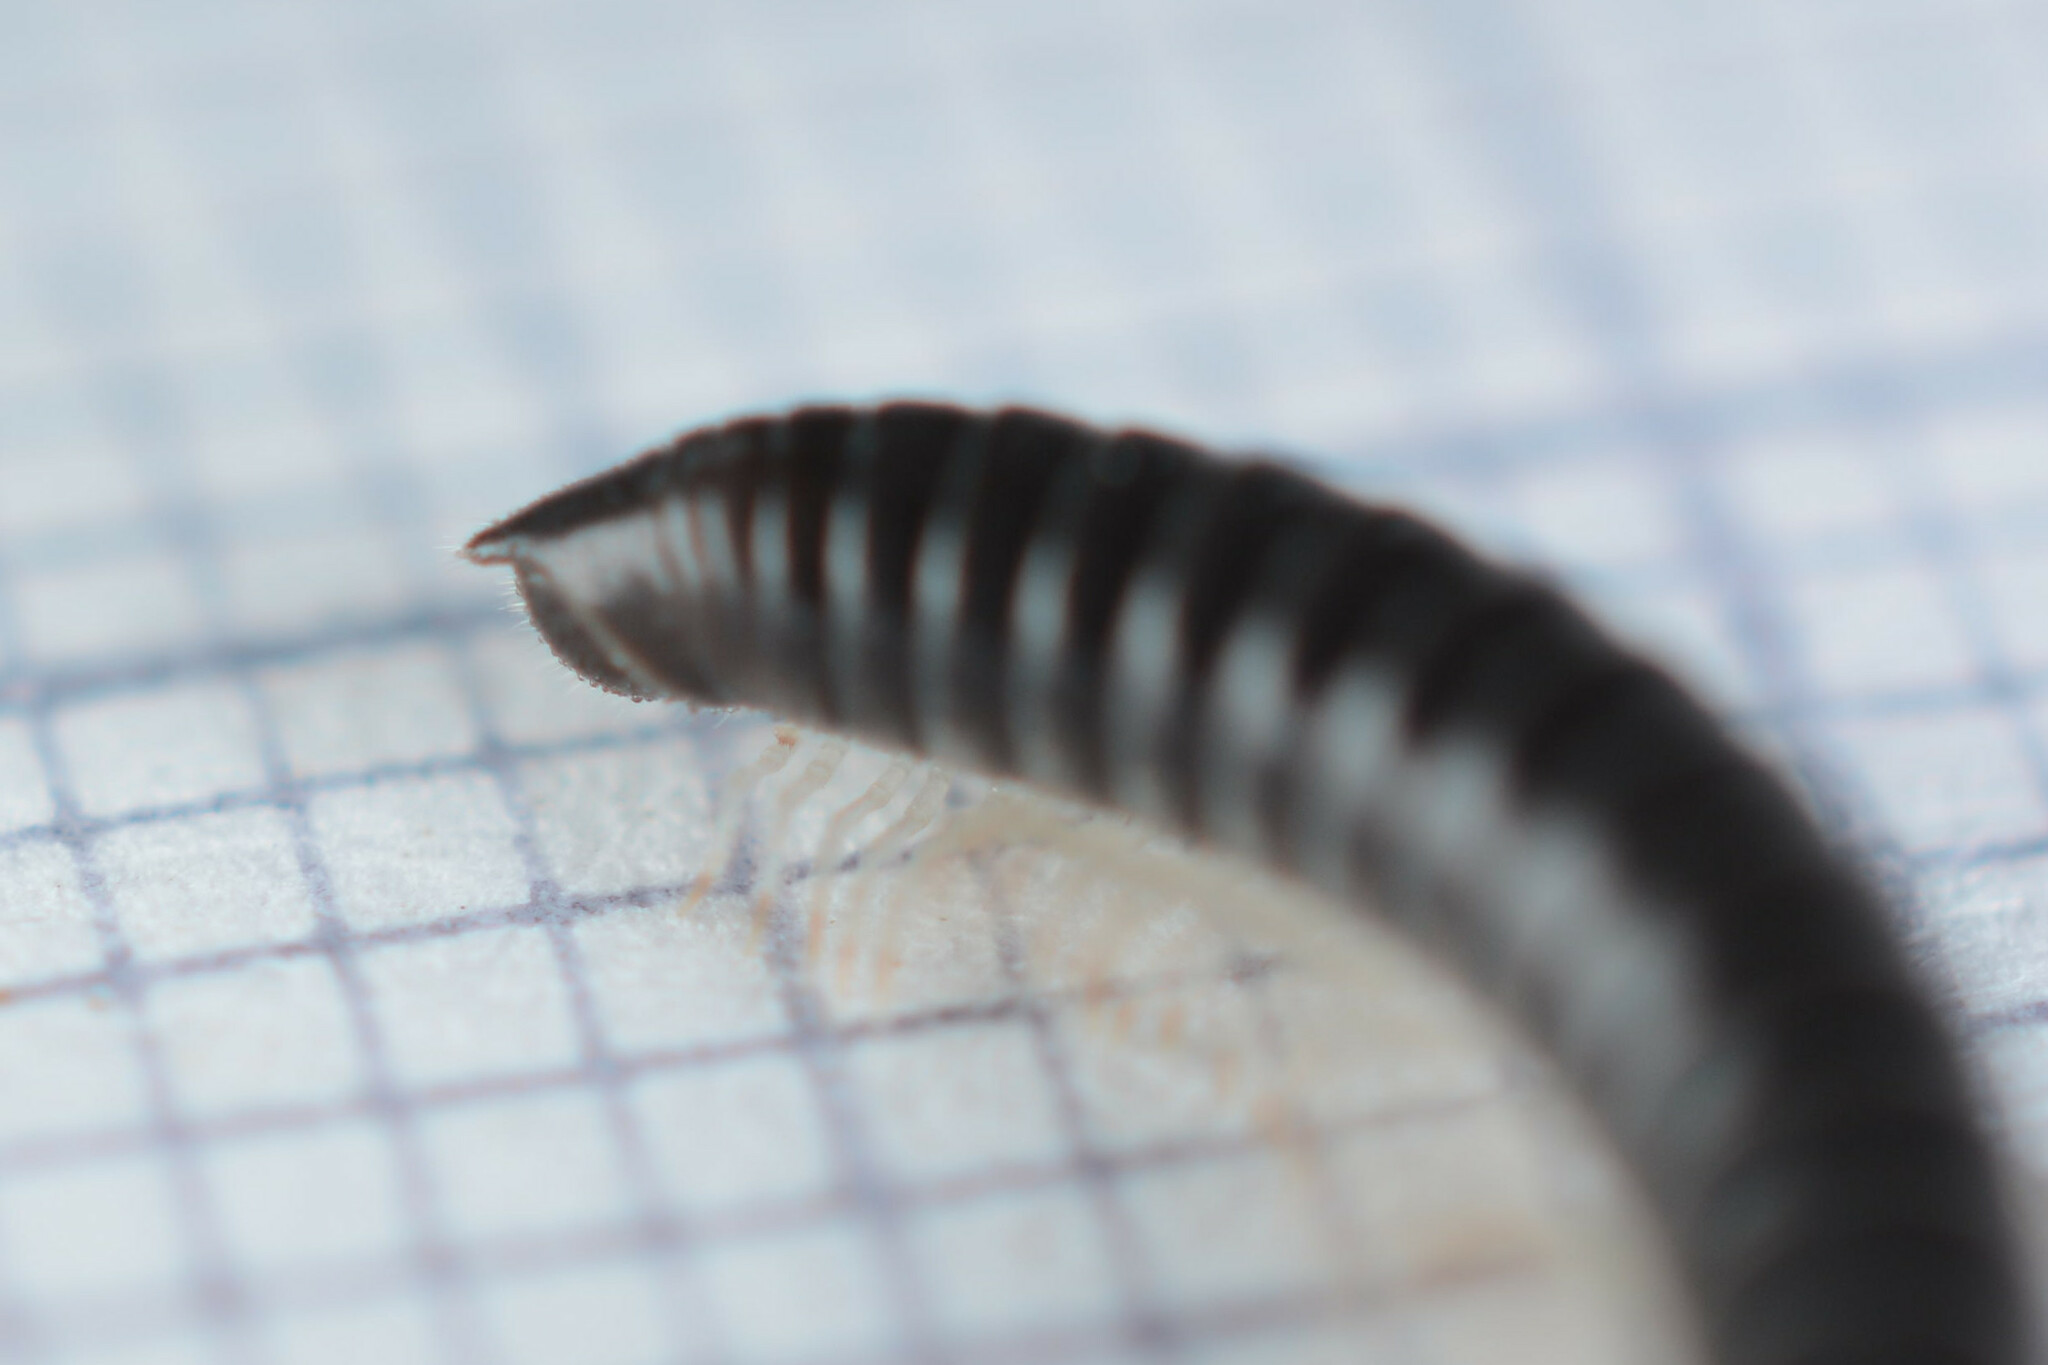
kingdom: Animalia
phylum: Arthropoda
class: Diplopoda
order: Julida
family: Julidae
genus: Tachypodoiulus
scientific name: Tachypodoiulus niger
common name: White-legged snake millipede
